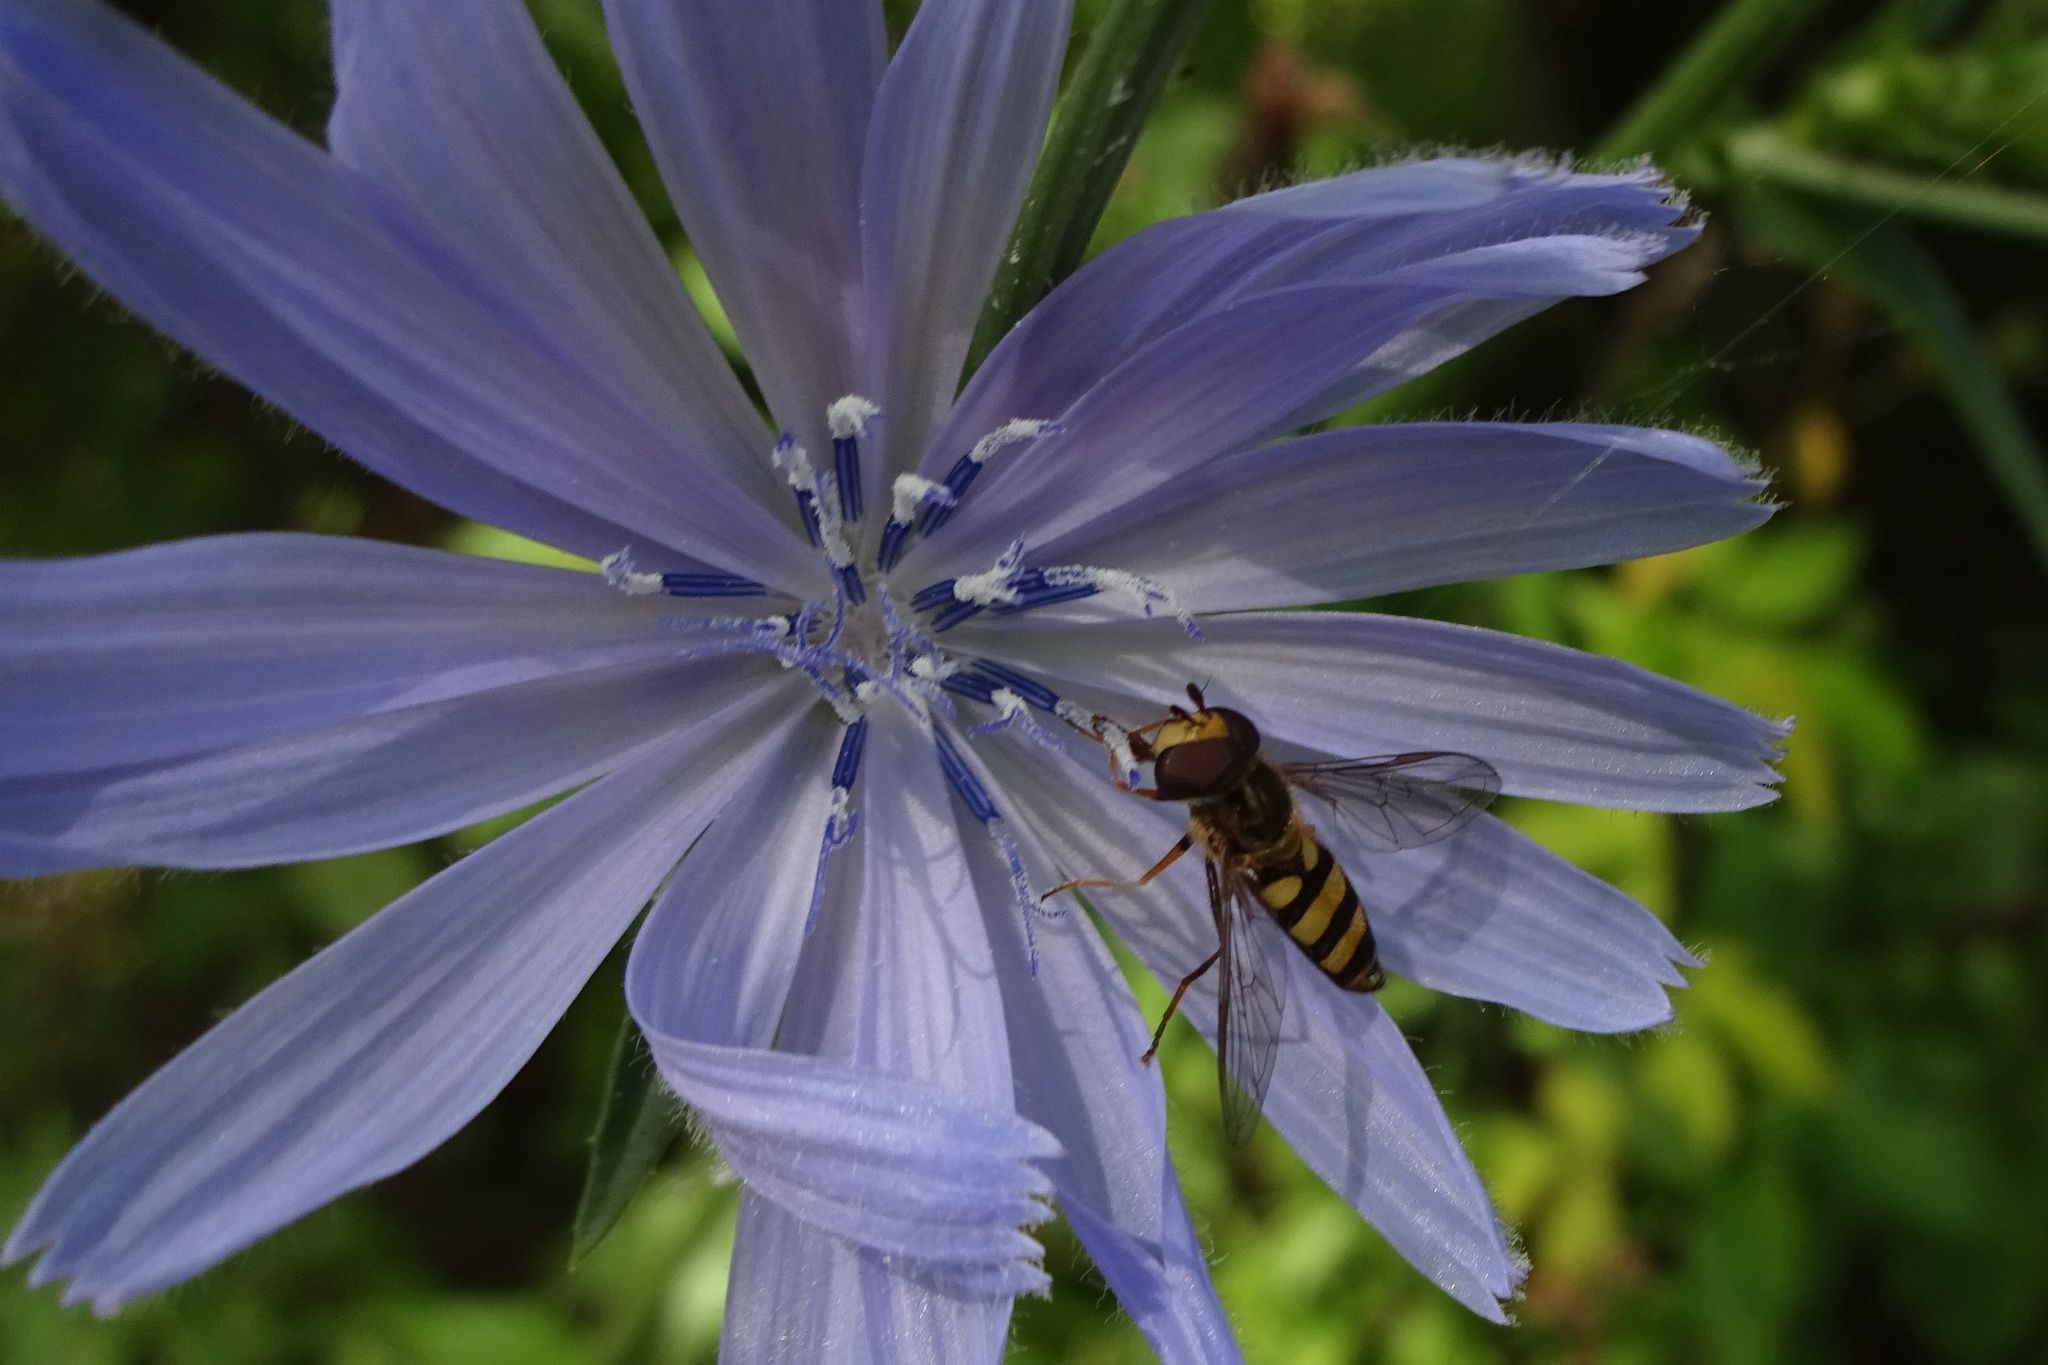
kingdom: Animalia
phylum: Arthropoda
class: Insecta
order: Diptera
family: Syrphidae
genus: Eupeodes
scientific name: Eupeodes
